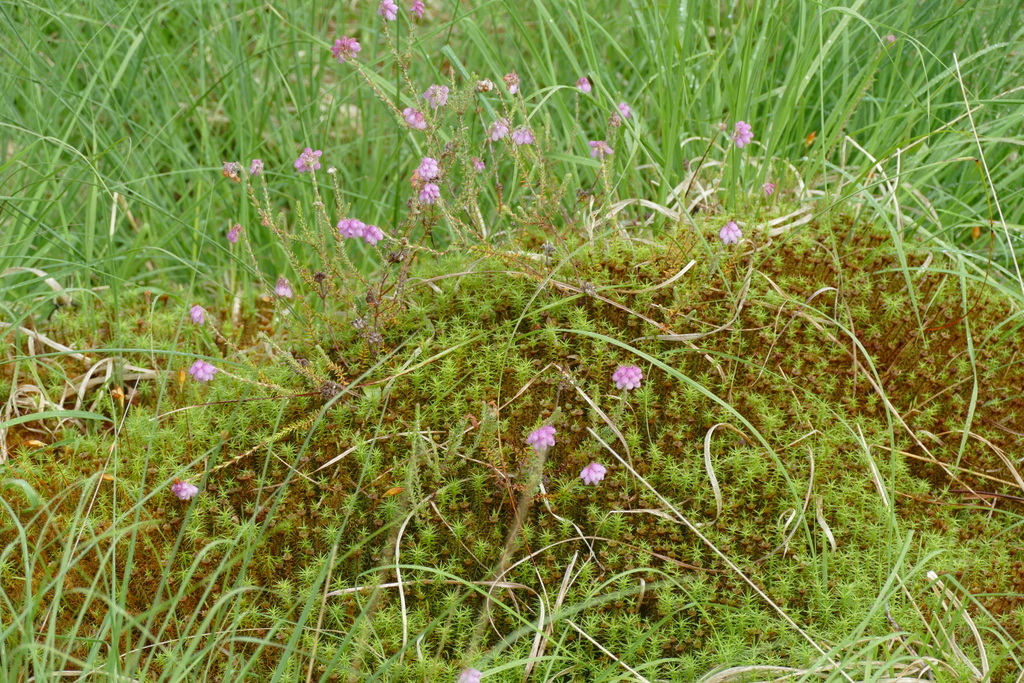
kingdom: Plantae
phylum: Tracheophyta
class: Magnoliopsida
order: Ericales
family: Ericaceae
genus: Erica
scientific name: Erica tetralix
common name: Cross-leaved heath
